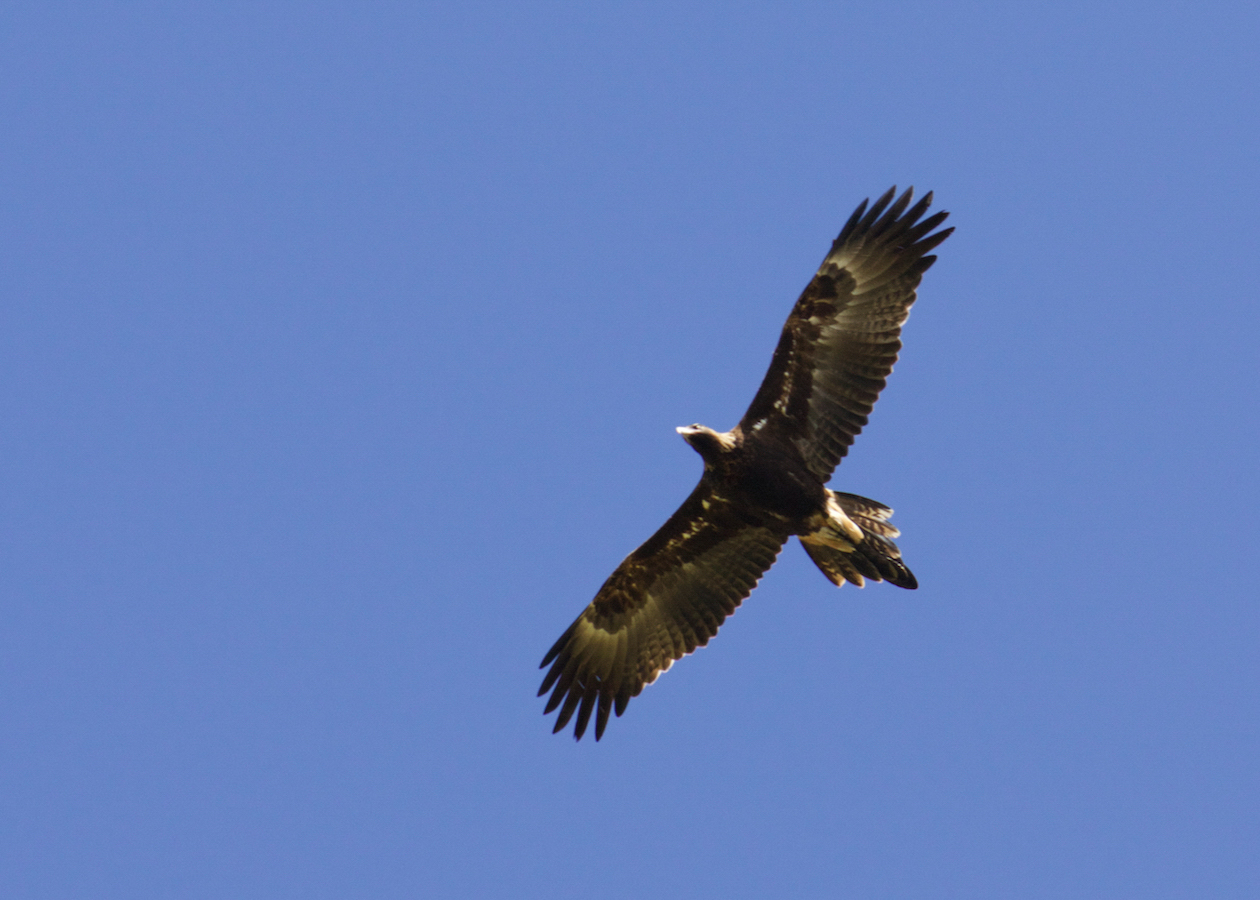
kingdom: Animalia
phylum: Chordata
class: Aves
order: Accipitriformes
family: Accipitridae
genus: Aquila
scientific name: Aquila audax
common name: Wedge-tailed eagle
